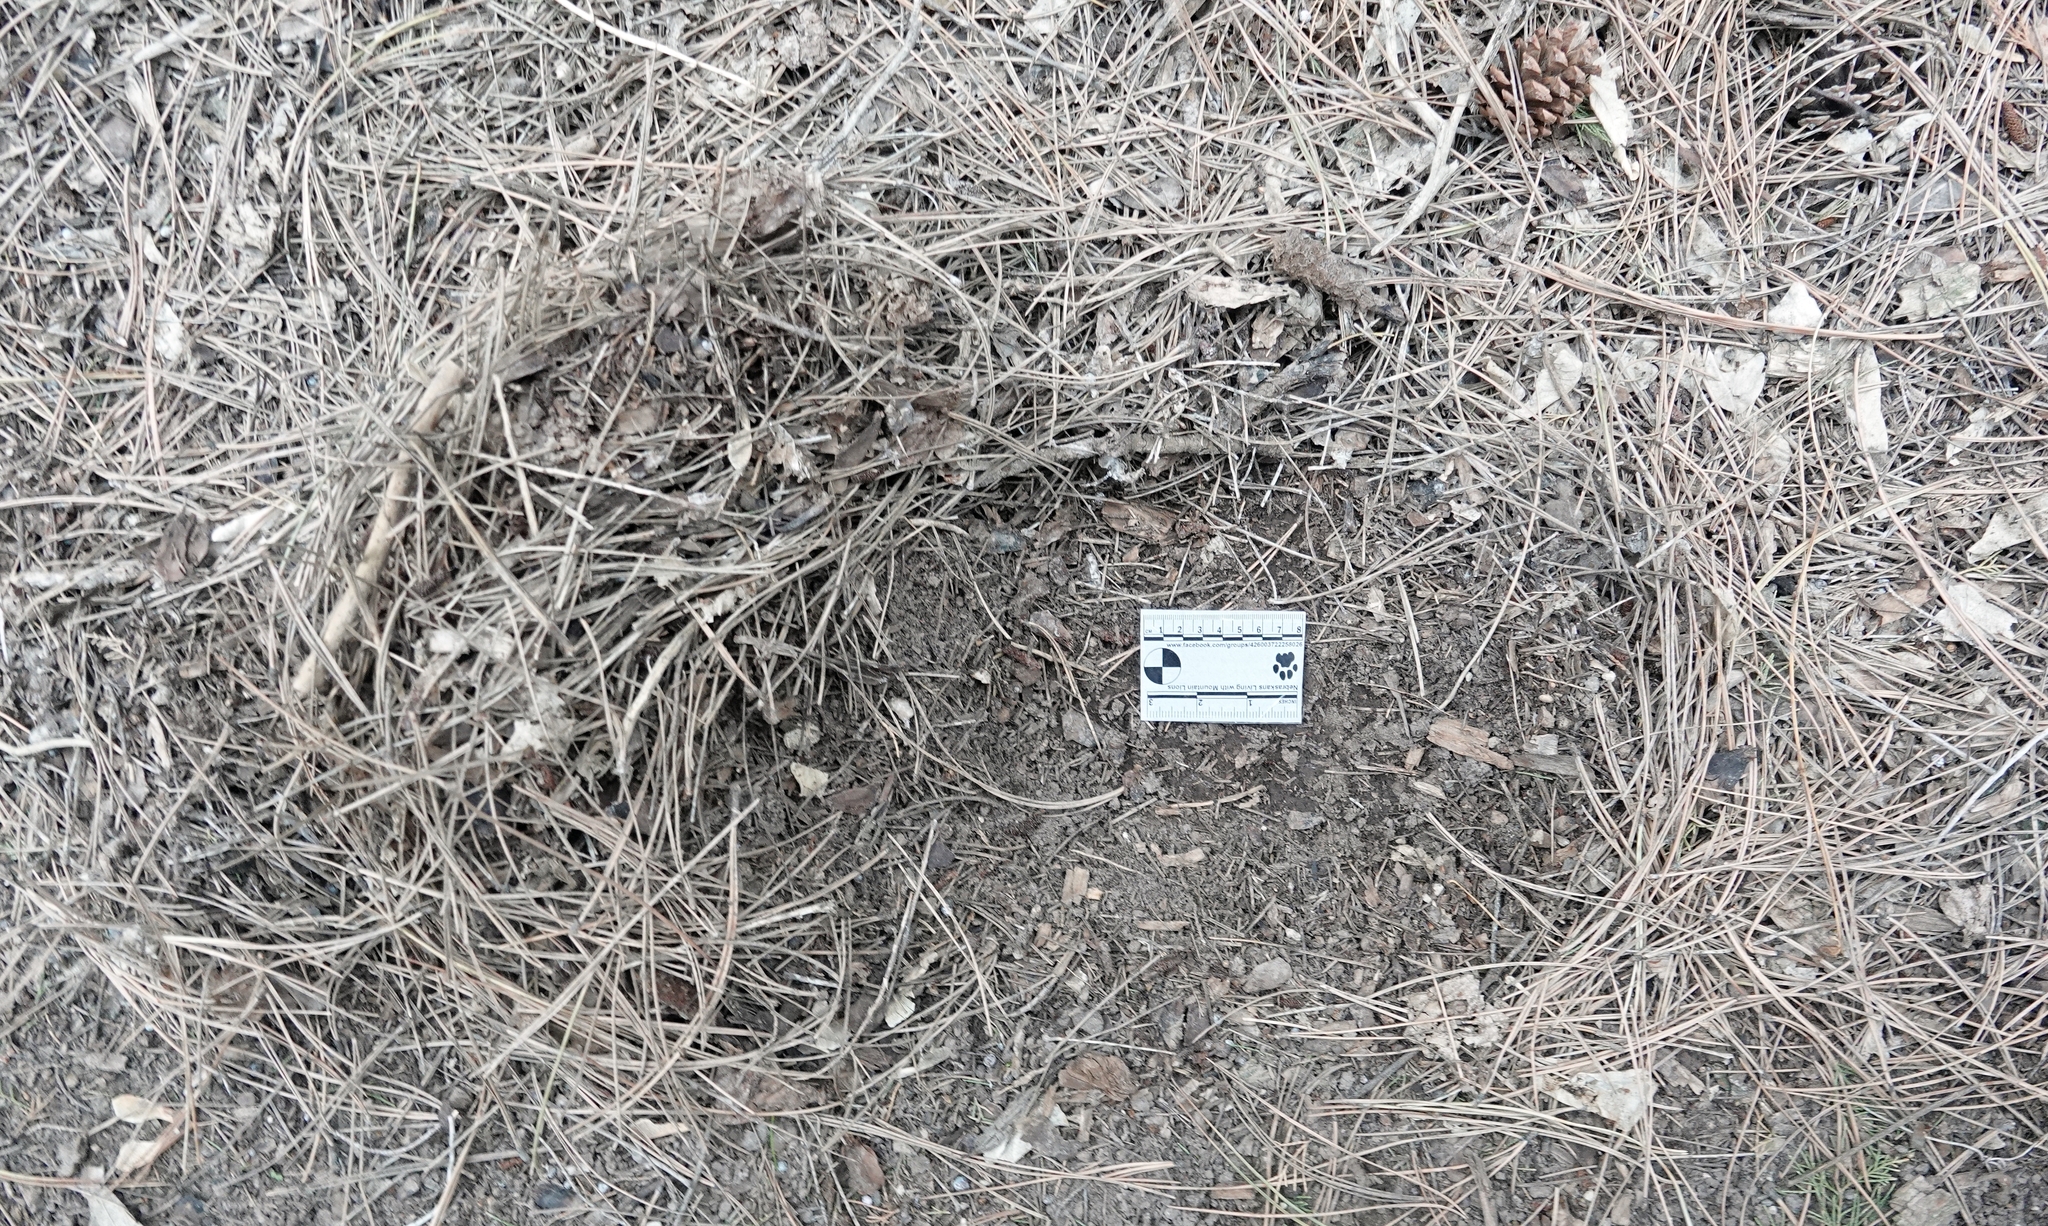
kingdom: Animalia
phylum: Chordata
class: Mammalia
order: Carnivora
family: Felidae
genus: Puma
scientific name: Puma concolor
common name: Puma
